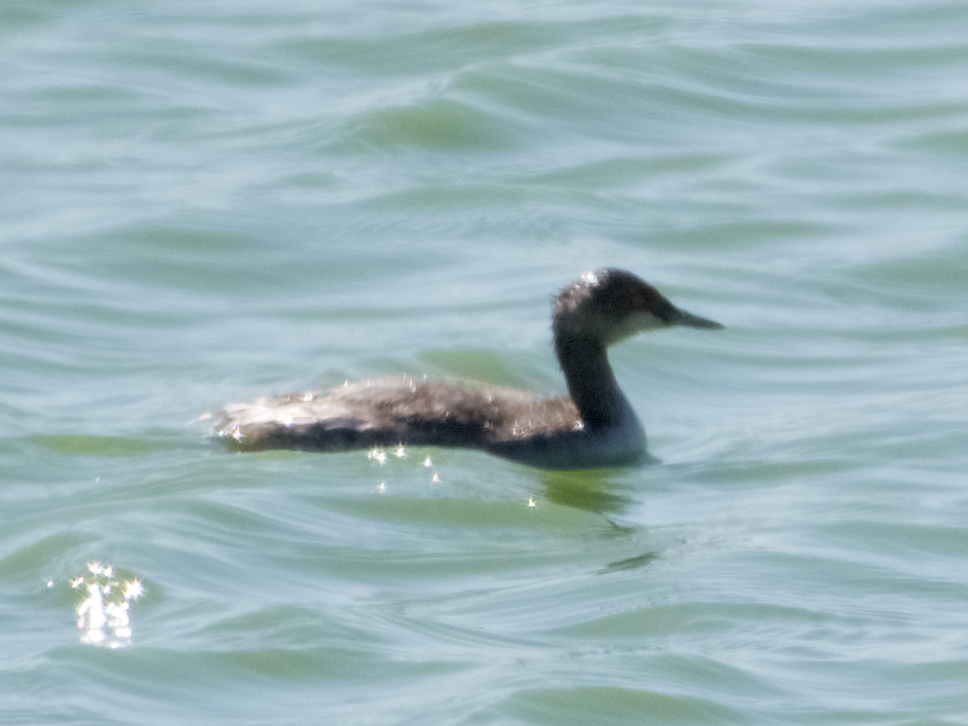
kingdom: Animalia
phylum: Chordata
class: Aves
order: Podicipediformes
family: Podicipedidae
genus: Podiceps
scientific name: Podiceps nigricollis
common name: Black-necked grebe
